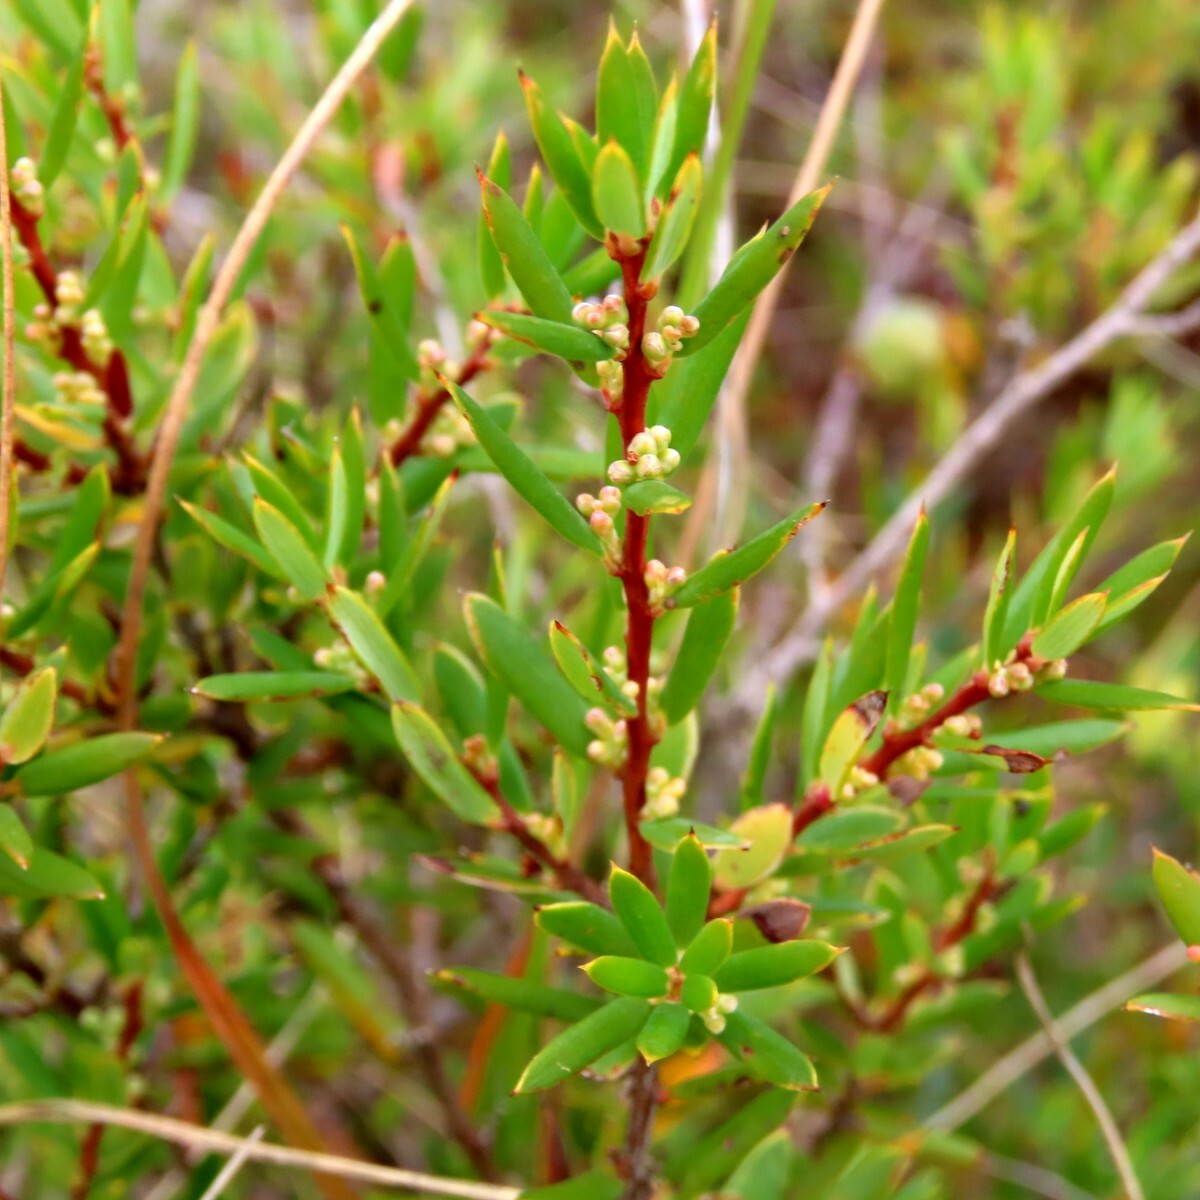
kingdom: Plantae
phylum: Tracheophyta
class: Magnoliopsida
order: Ericales
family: Ericaceae
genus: Monotoca
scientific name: Monotoca scoparia
